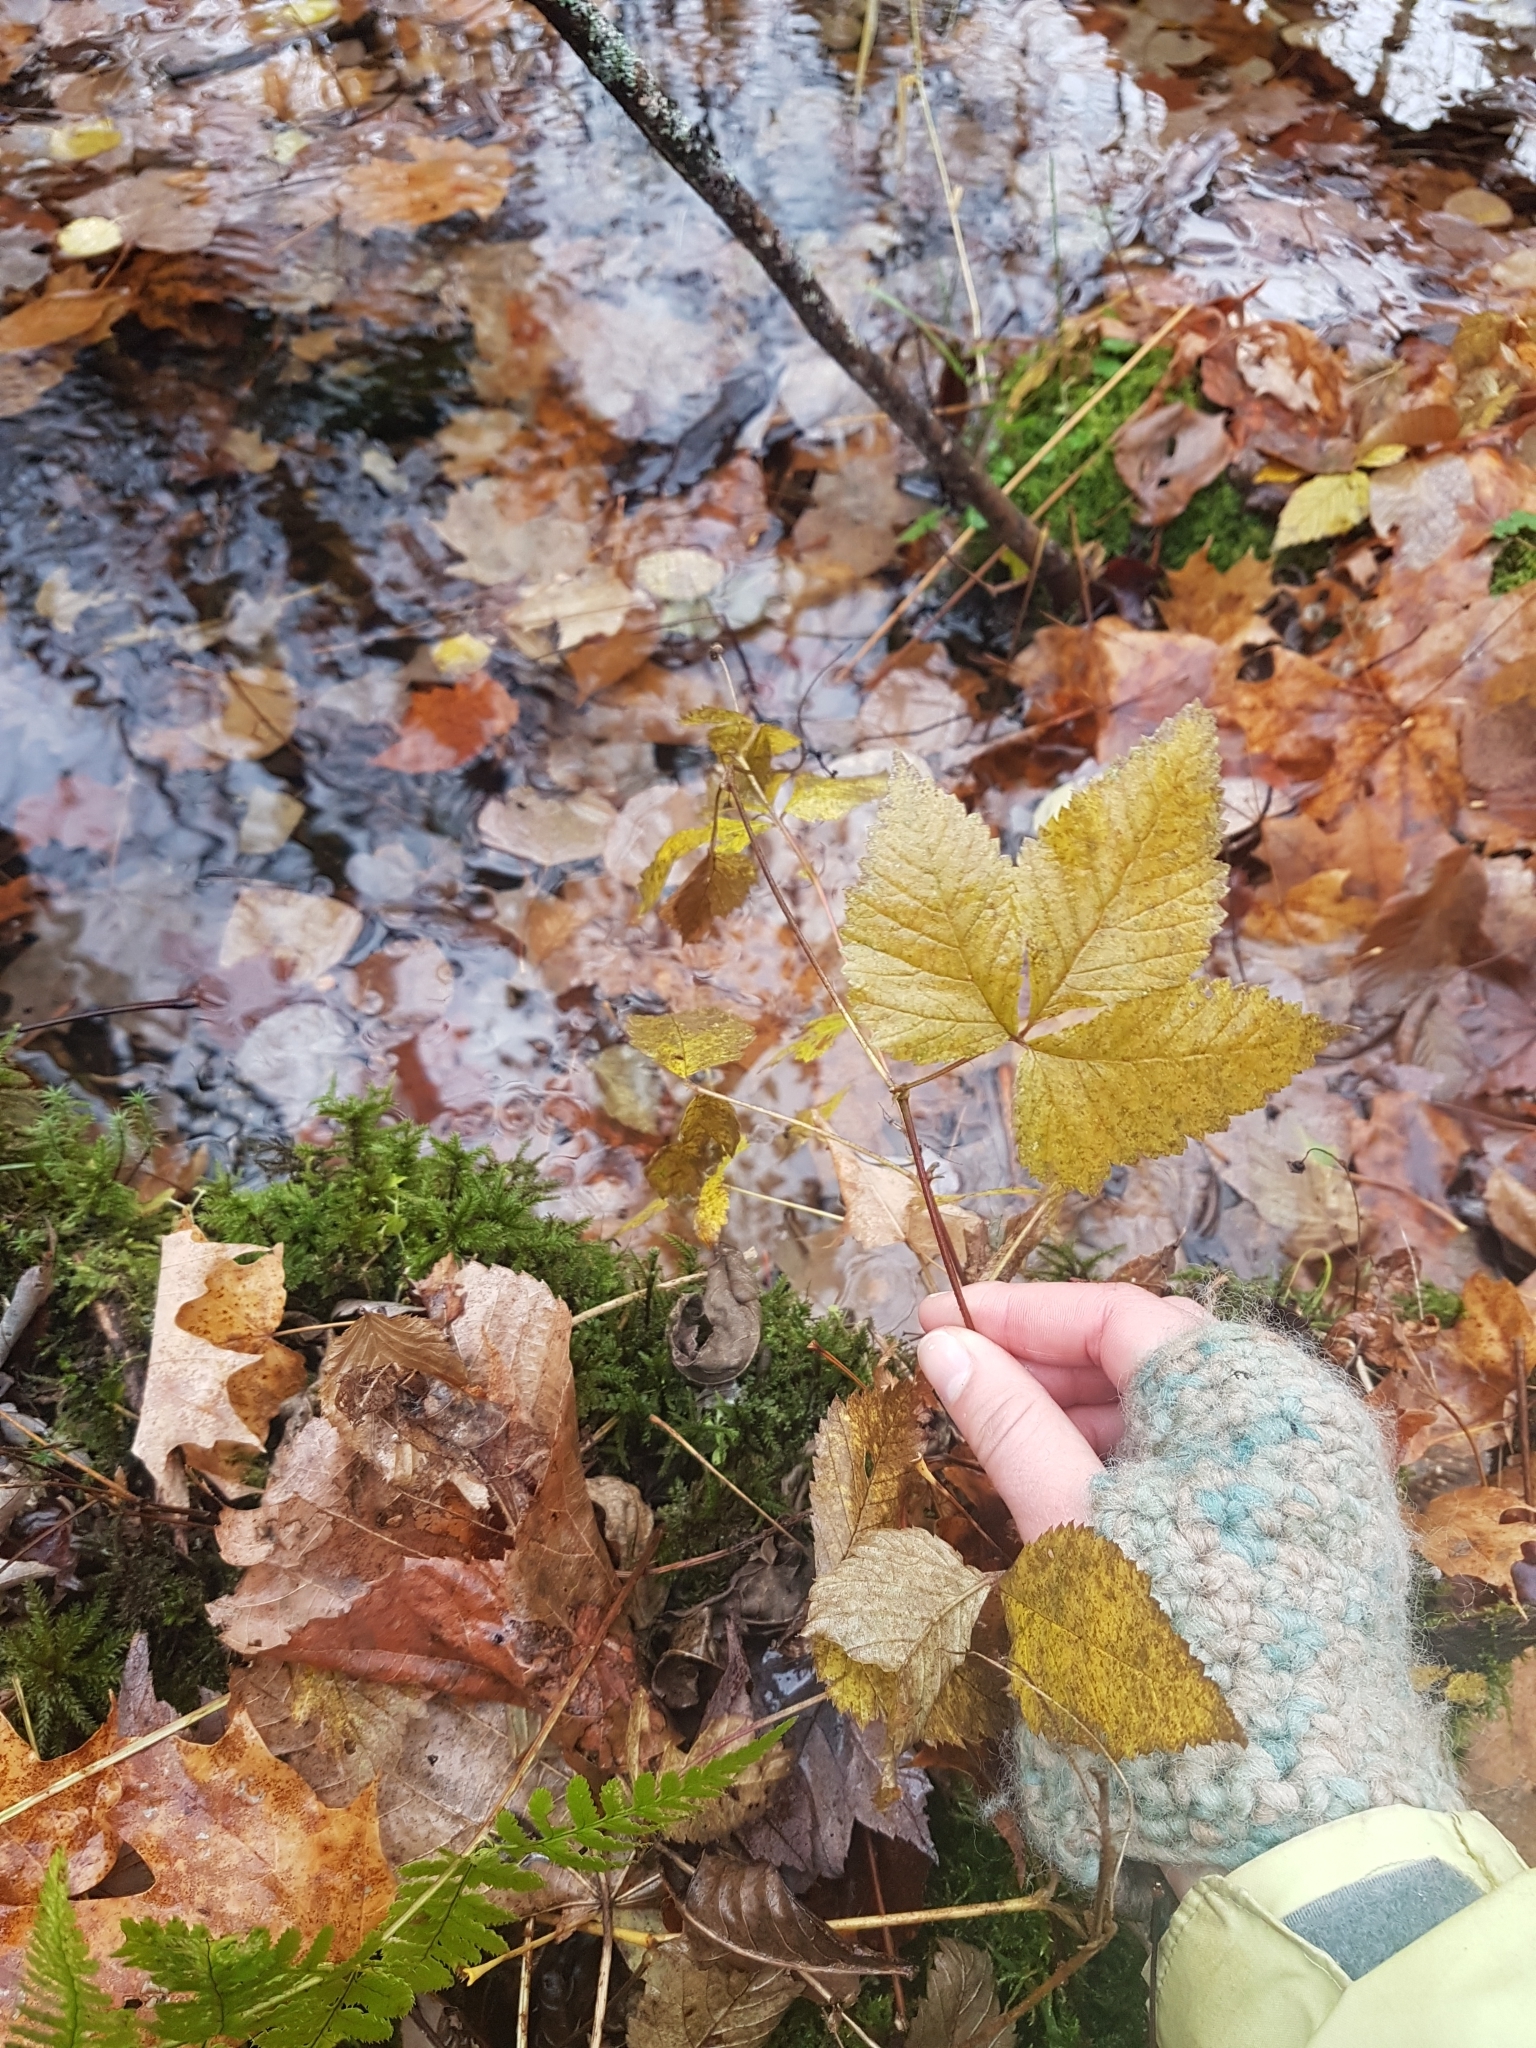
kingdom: Plantae
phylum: Tracheophyta
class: Magnoliopsida
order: Rosales
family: Rosaceae
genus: Rubus
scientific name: Rubus pubescens
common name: Dwarf raspberry
